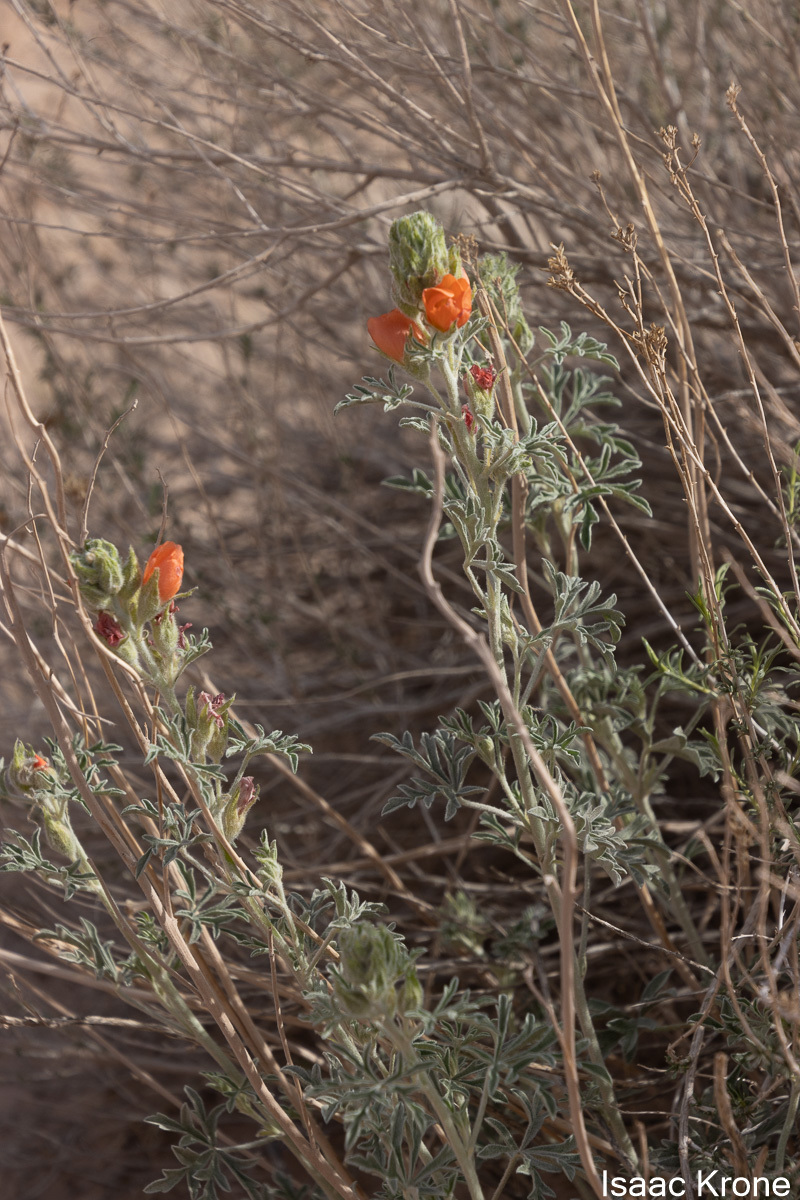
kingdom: Plantae
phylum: Tracheophyta
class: Magnoliopsida
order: Malvales
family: Malvaceae
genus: Sphaeralcea
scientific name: Sphaeralcea coccinea
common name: Moss-rose
